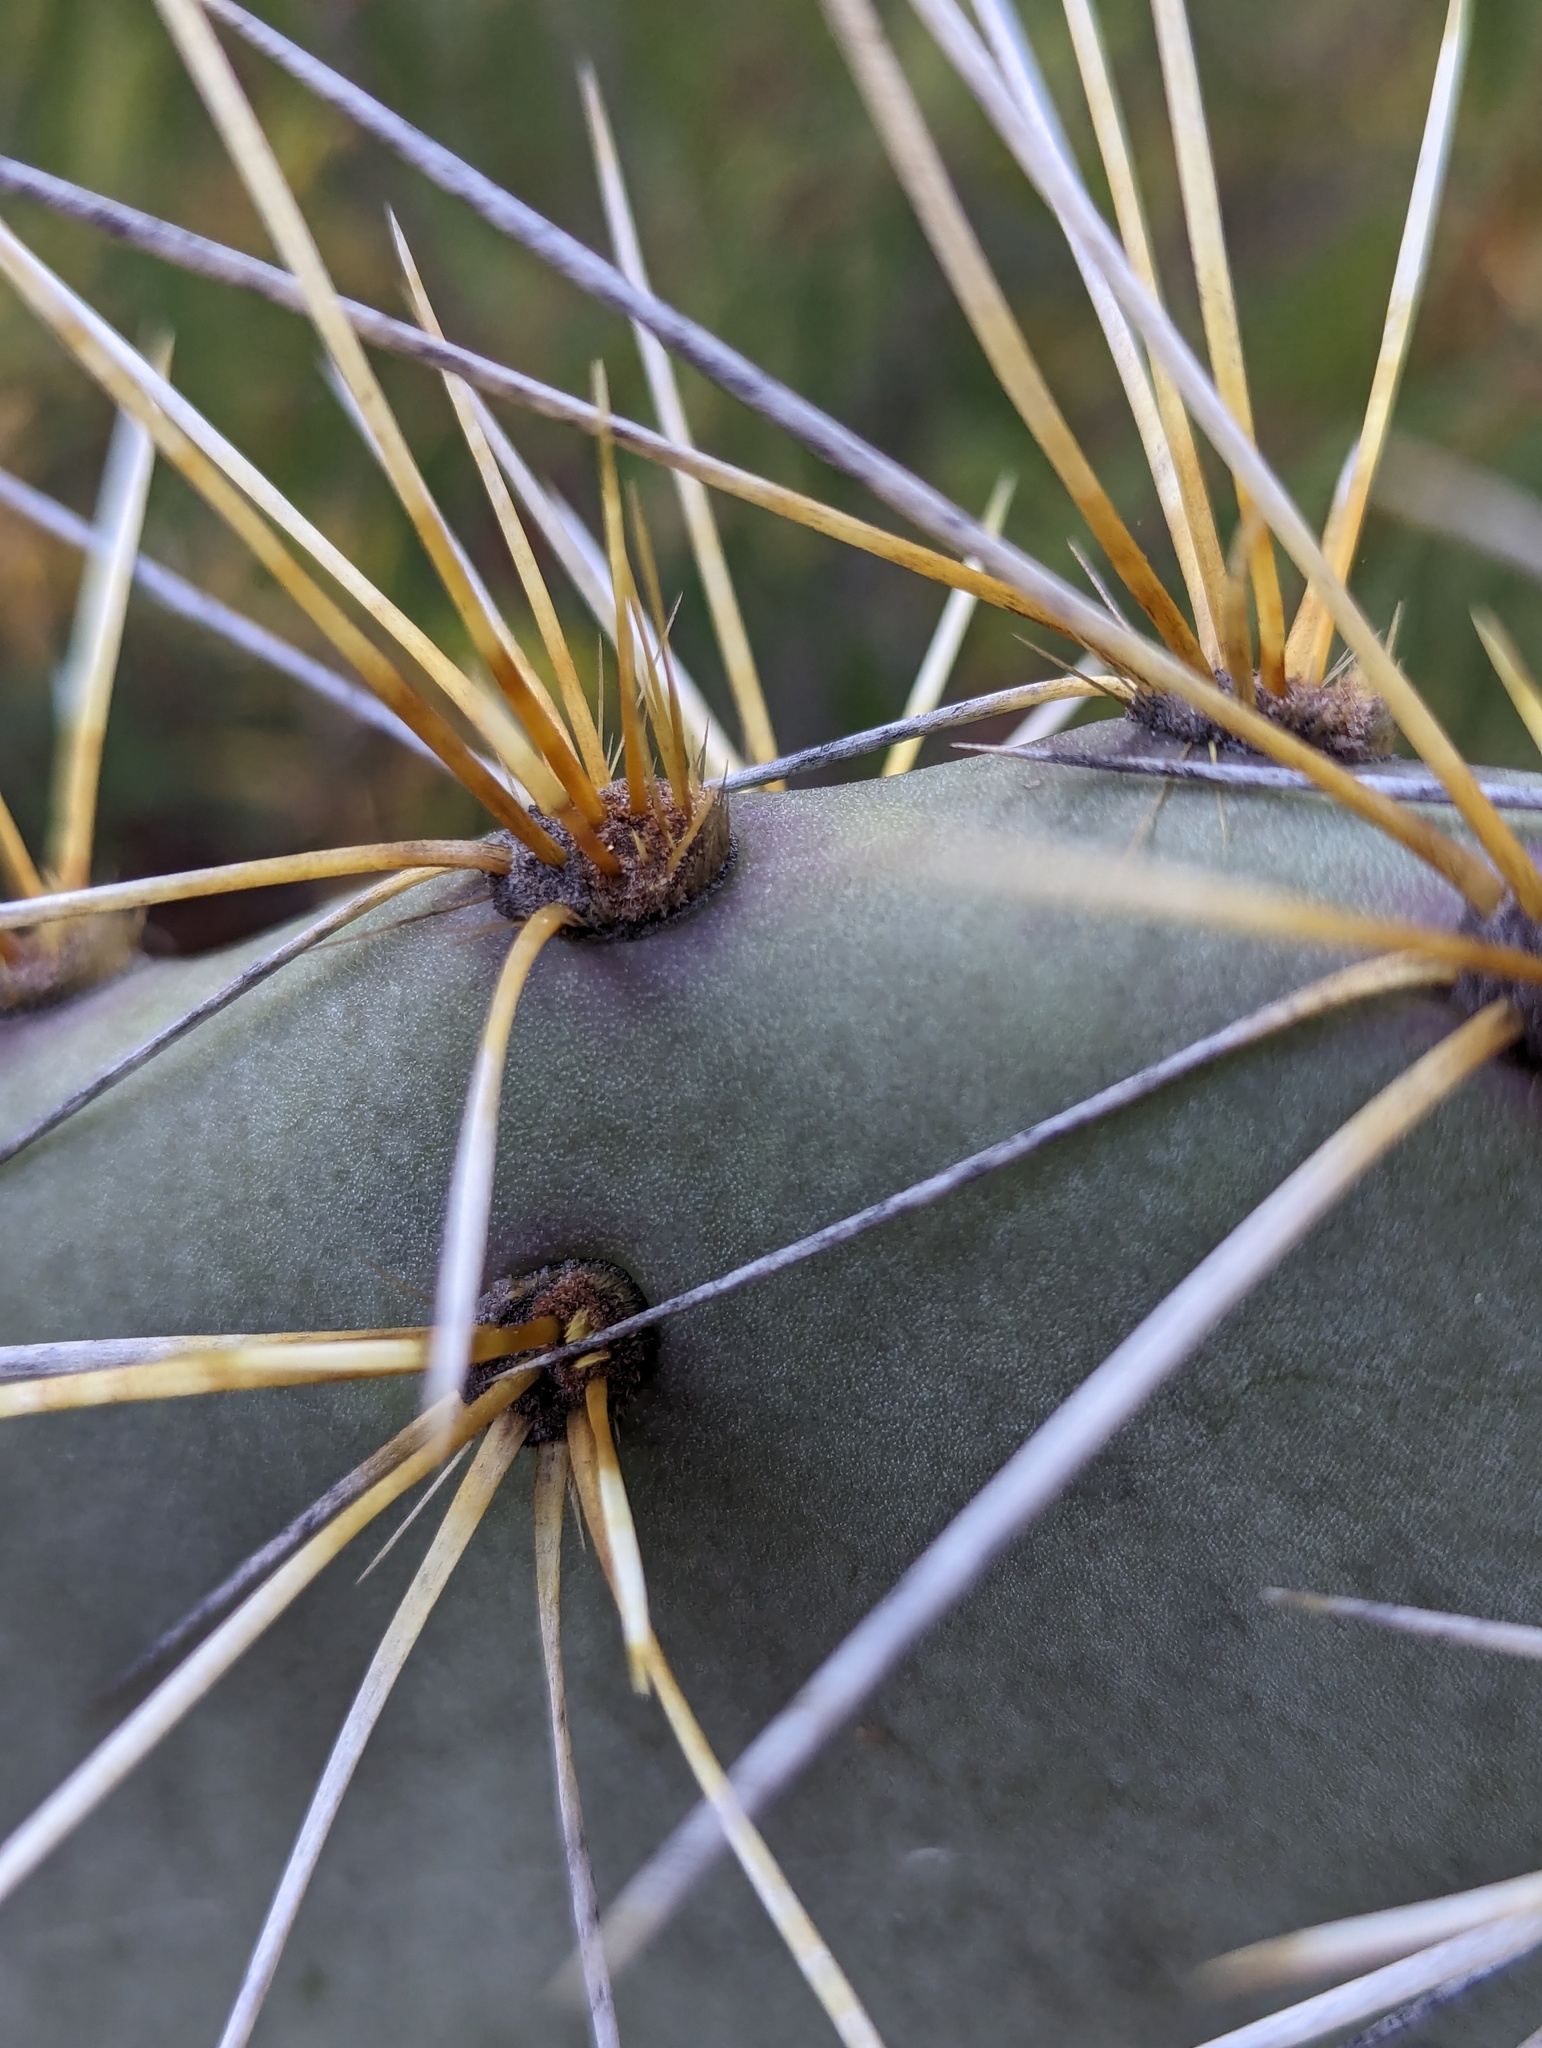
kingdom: Plantae
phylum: Tracheophyta
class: Magnoliopsida
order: Caryophyllales
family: Cactaceae
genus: Opuntia
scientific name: Opuntia lagunae
